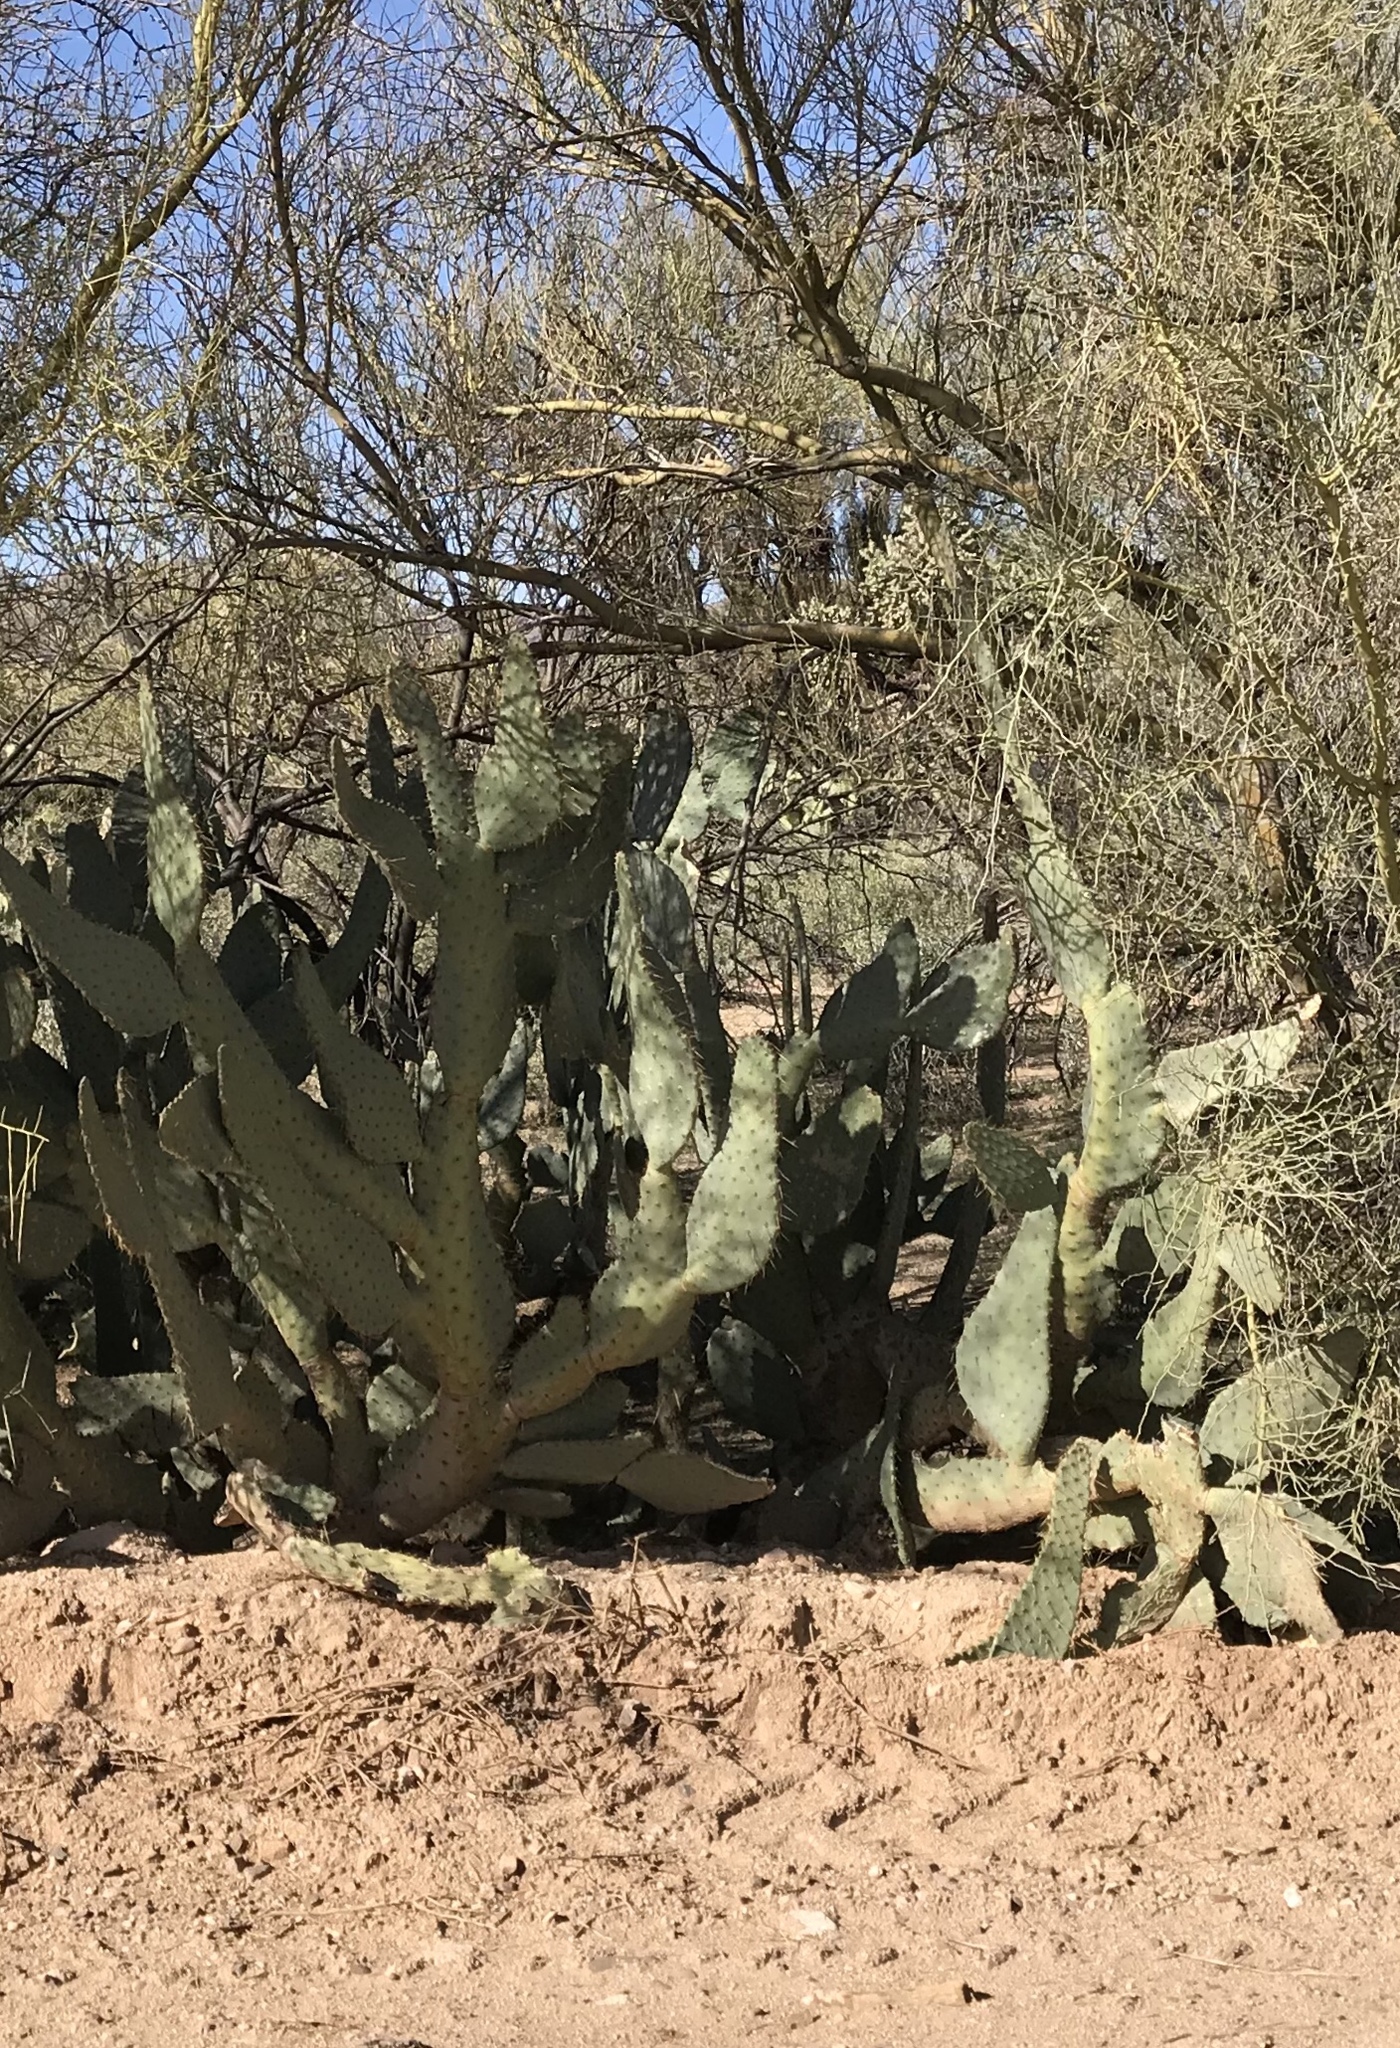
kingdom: Plantae
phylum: Tracheophyta
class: Magnoliopsida
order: Caryophyllales
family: Cactaceae
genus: Opuntia
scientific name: Opuntia engelmannii
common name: Cactus-apple
